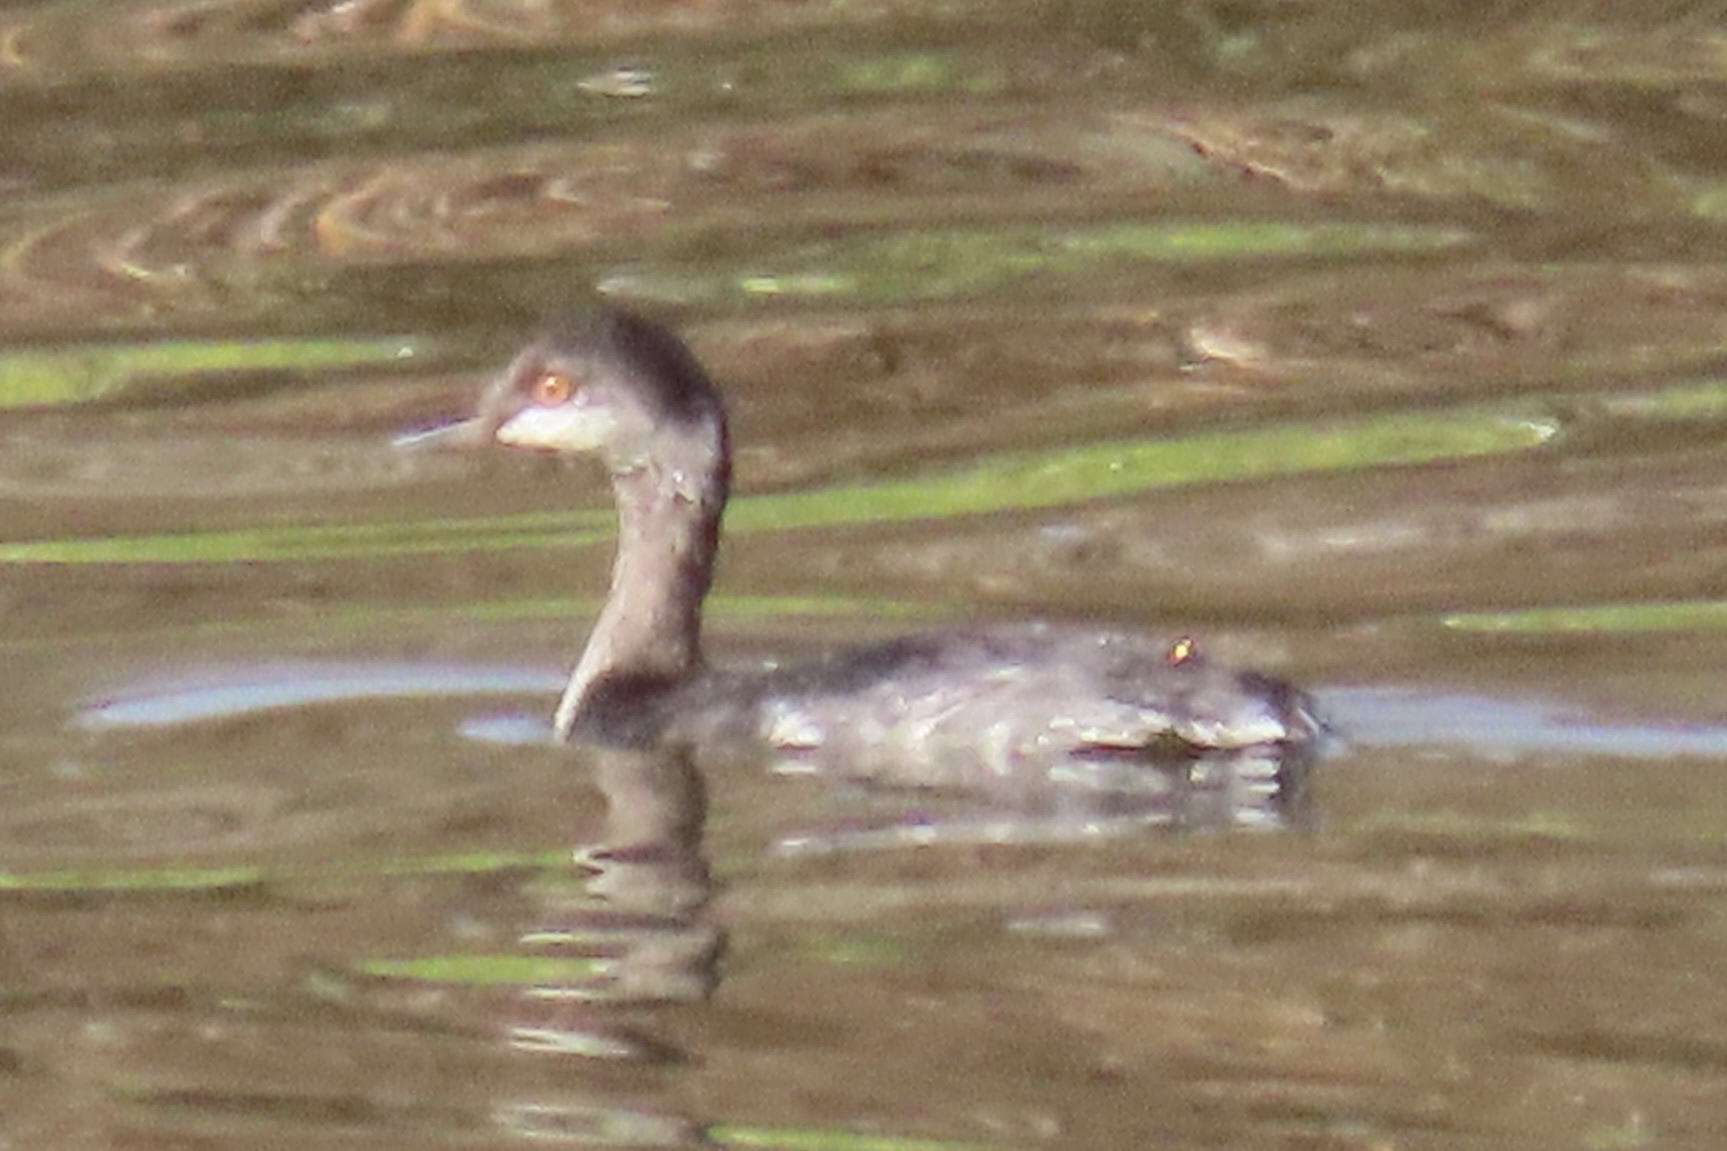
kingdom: Animalia
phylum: Chordata
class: Aves
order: Podicipediformes
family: Podicipedidae
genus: Podiceps
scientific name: Podiceps nigricollis
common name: Black-necked grebe
